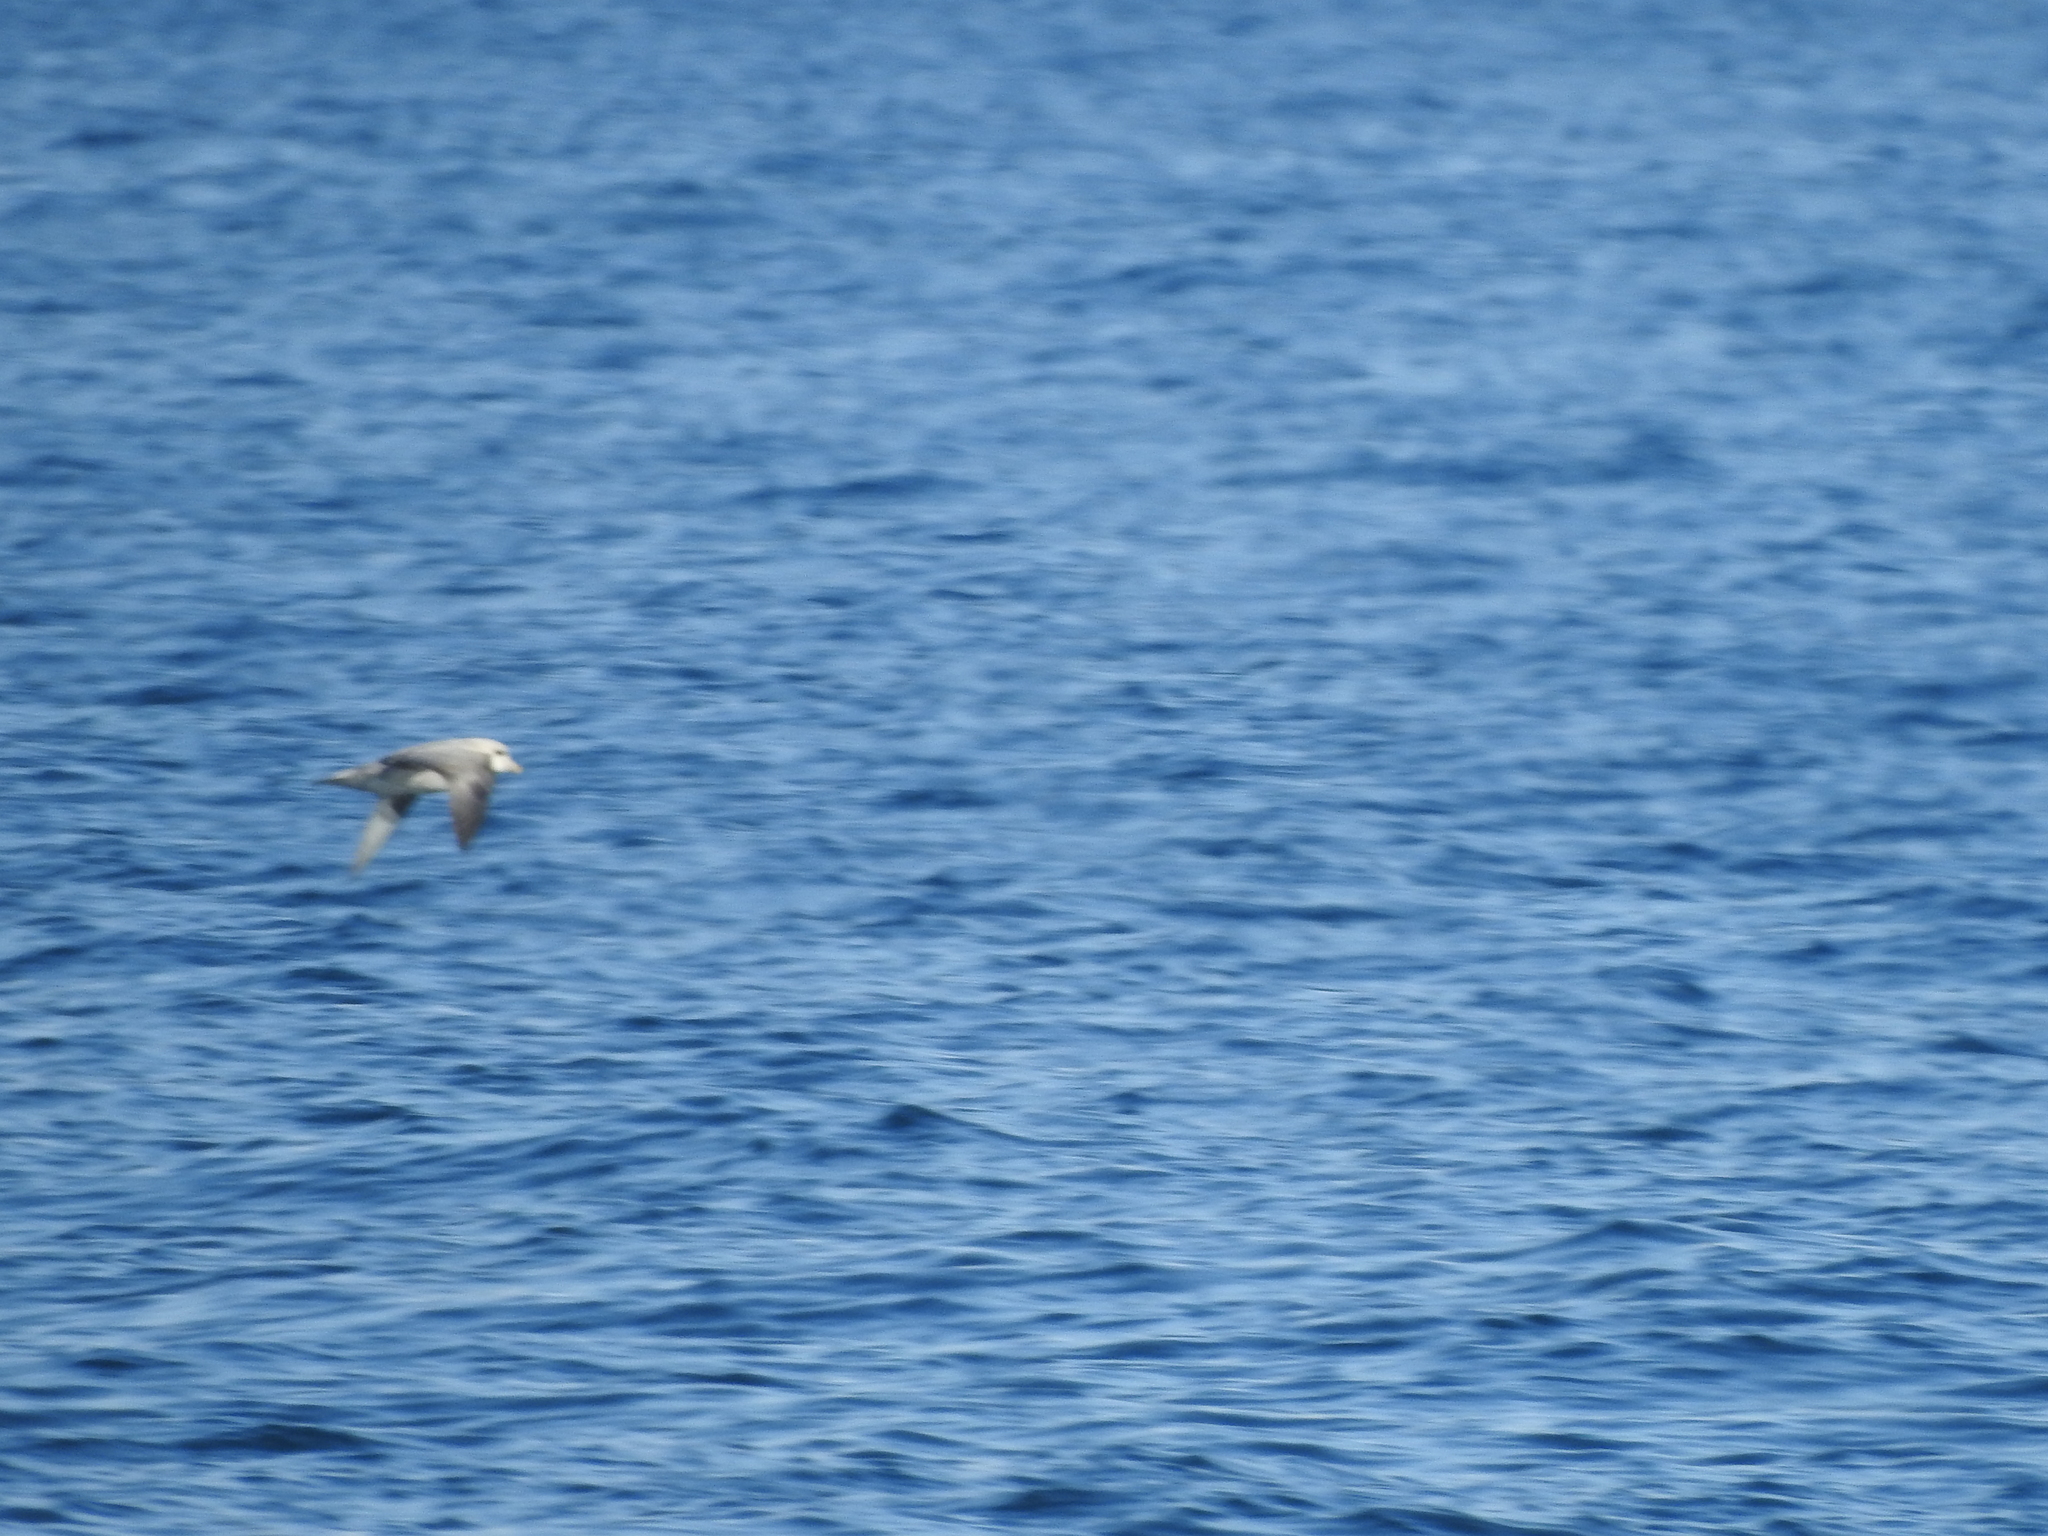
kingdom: Animalia
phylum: Chordata
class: Aves
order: Procellariiformes
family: Procellariidae
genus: Fulmarus
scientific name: Fulmarus glacialis
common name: Northern fulmar
